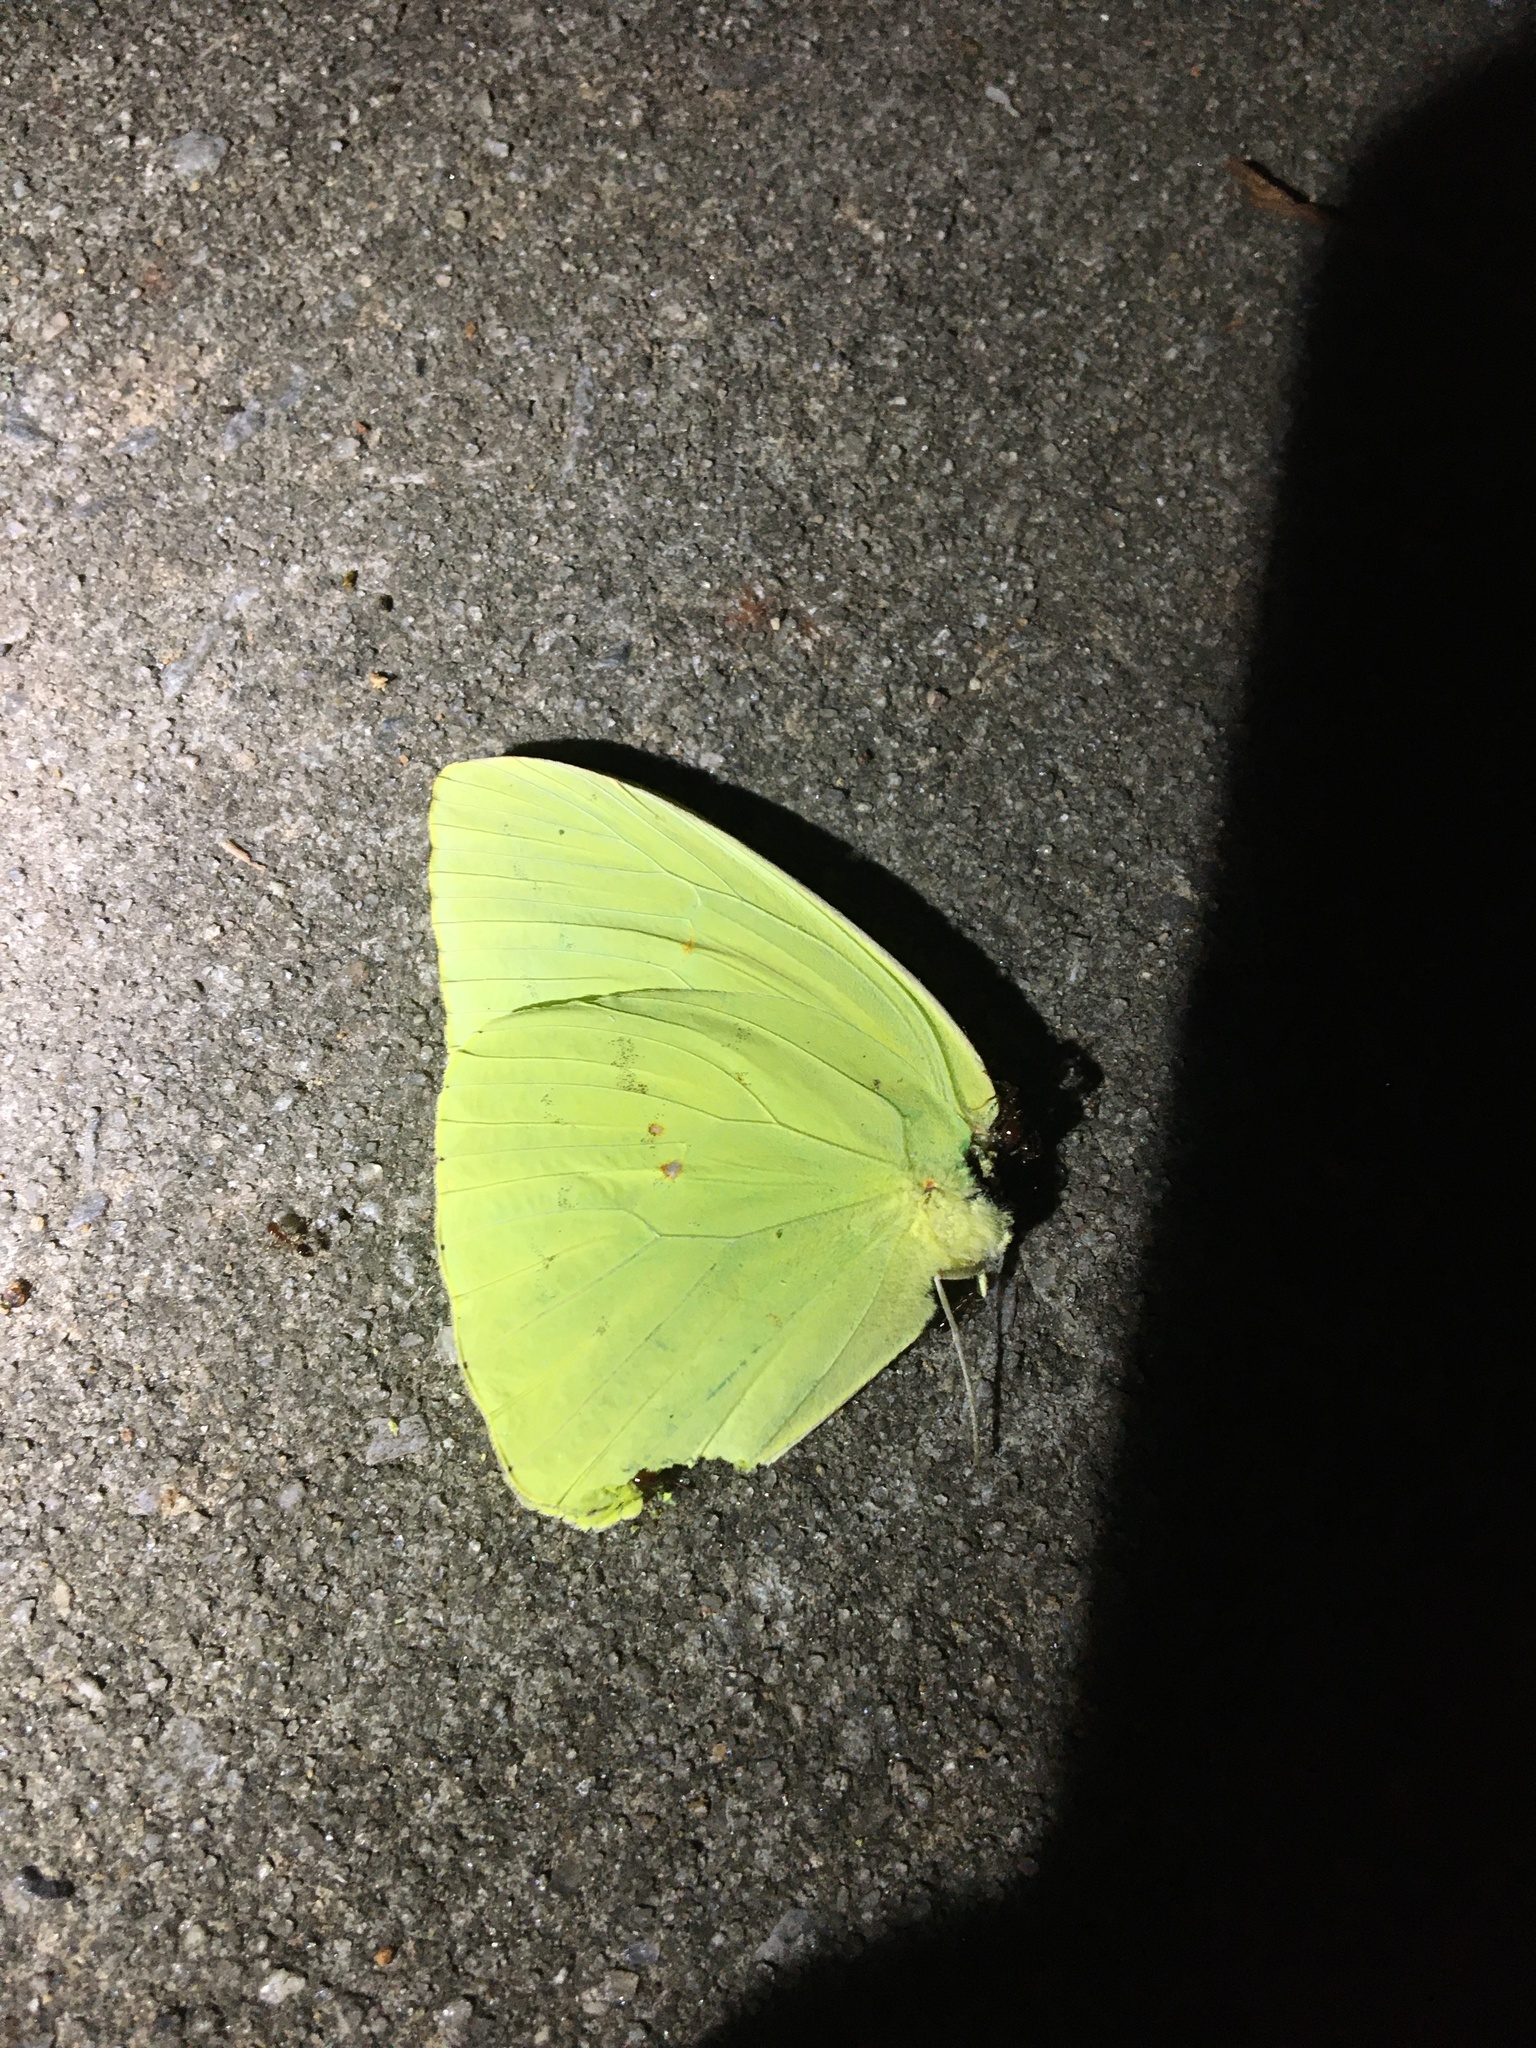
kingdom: Animalia
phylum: Arthropoda
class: Insecta
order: Lepidoptera
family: Pieridae
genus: Phoebis
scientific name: Phoebis sennae
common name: Cloudless sulphur
